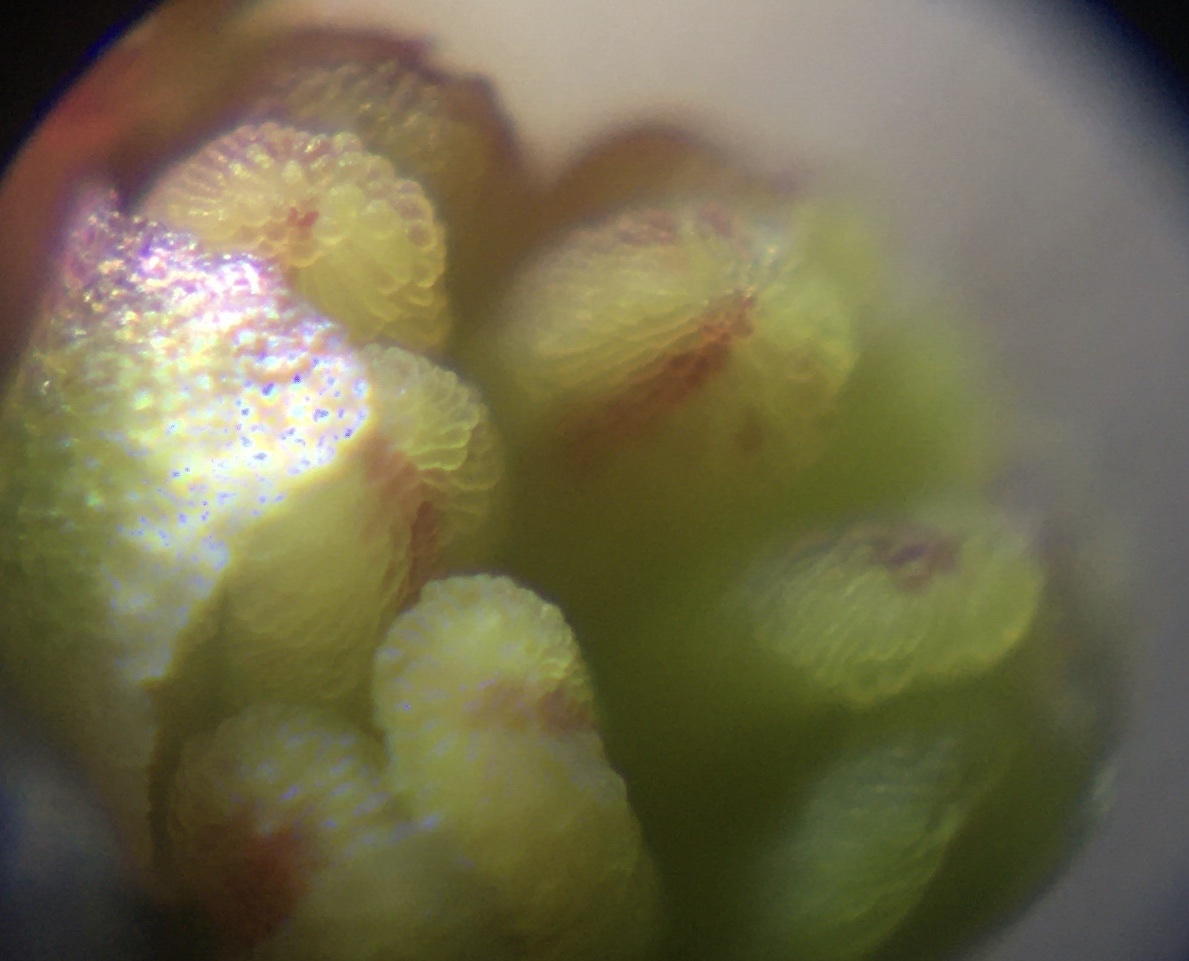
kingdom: Plantae
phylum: Tracheophyta
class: Magnoliopsida
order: Caryophyllales
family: Polygonaceae
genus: Rumex
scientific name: Rumex acetosella
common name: Common sheep sorrel
